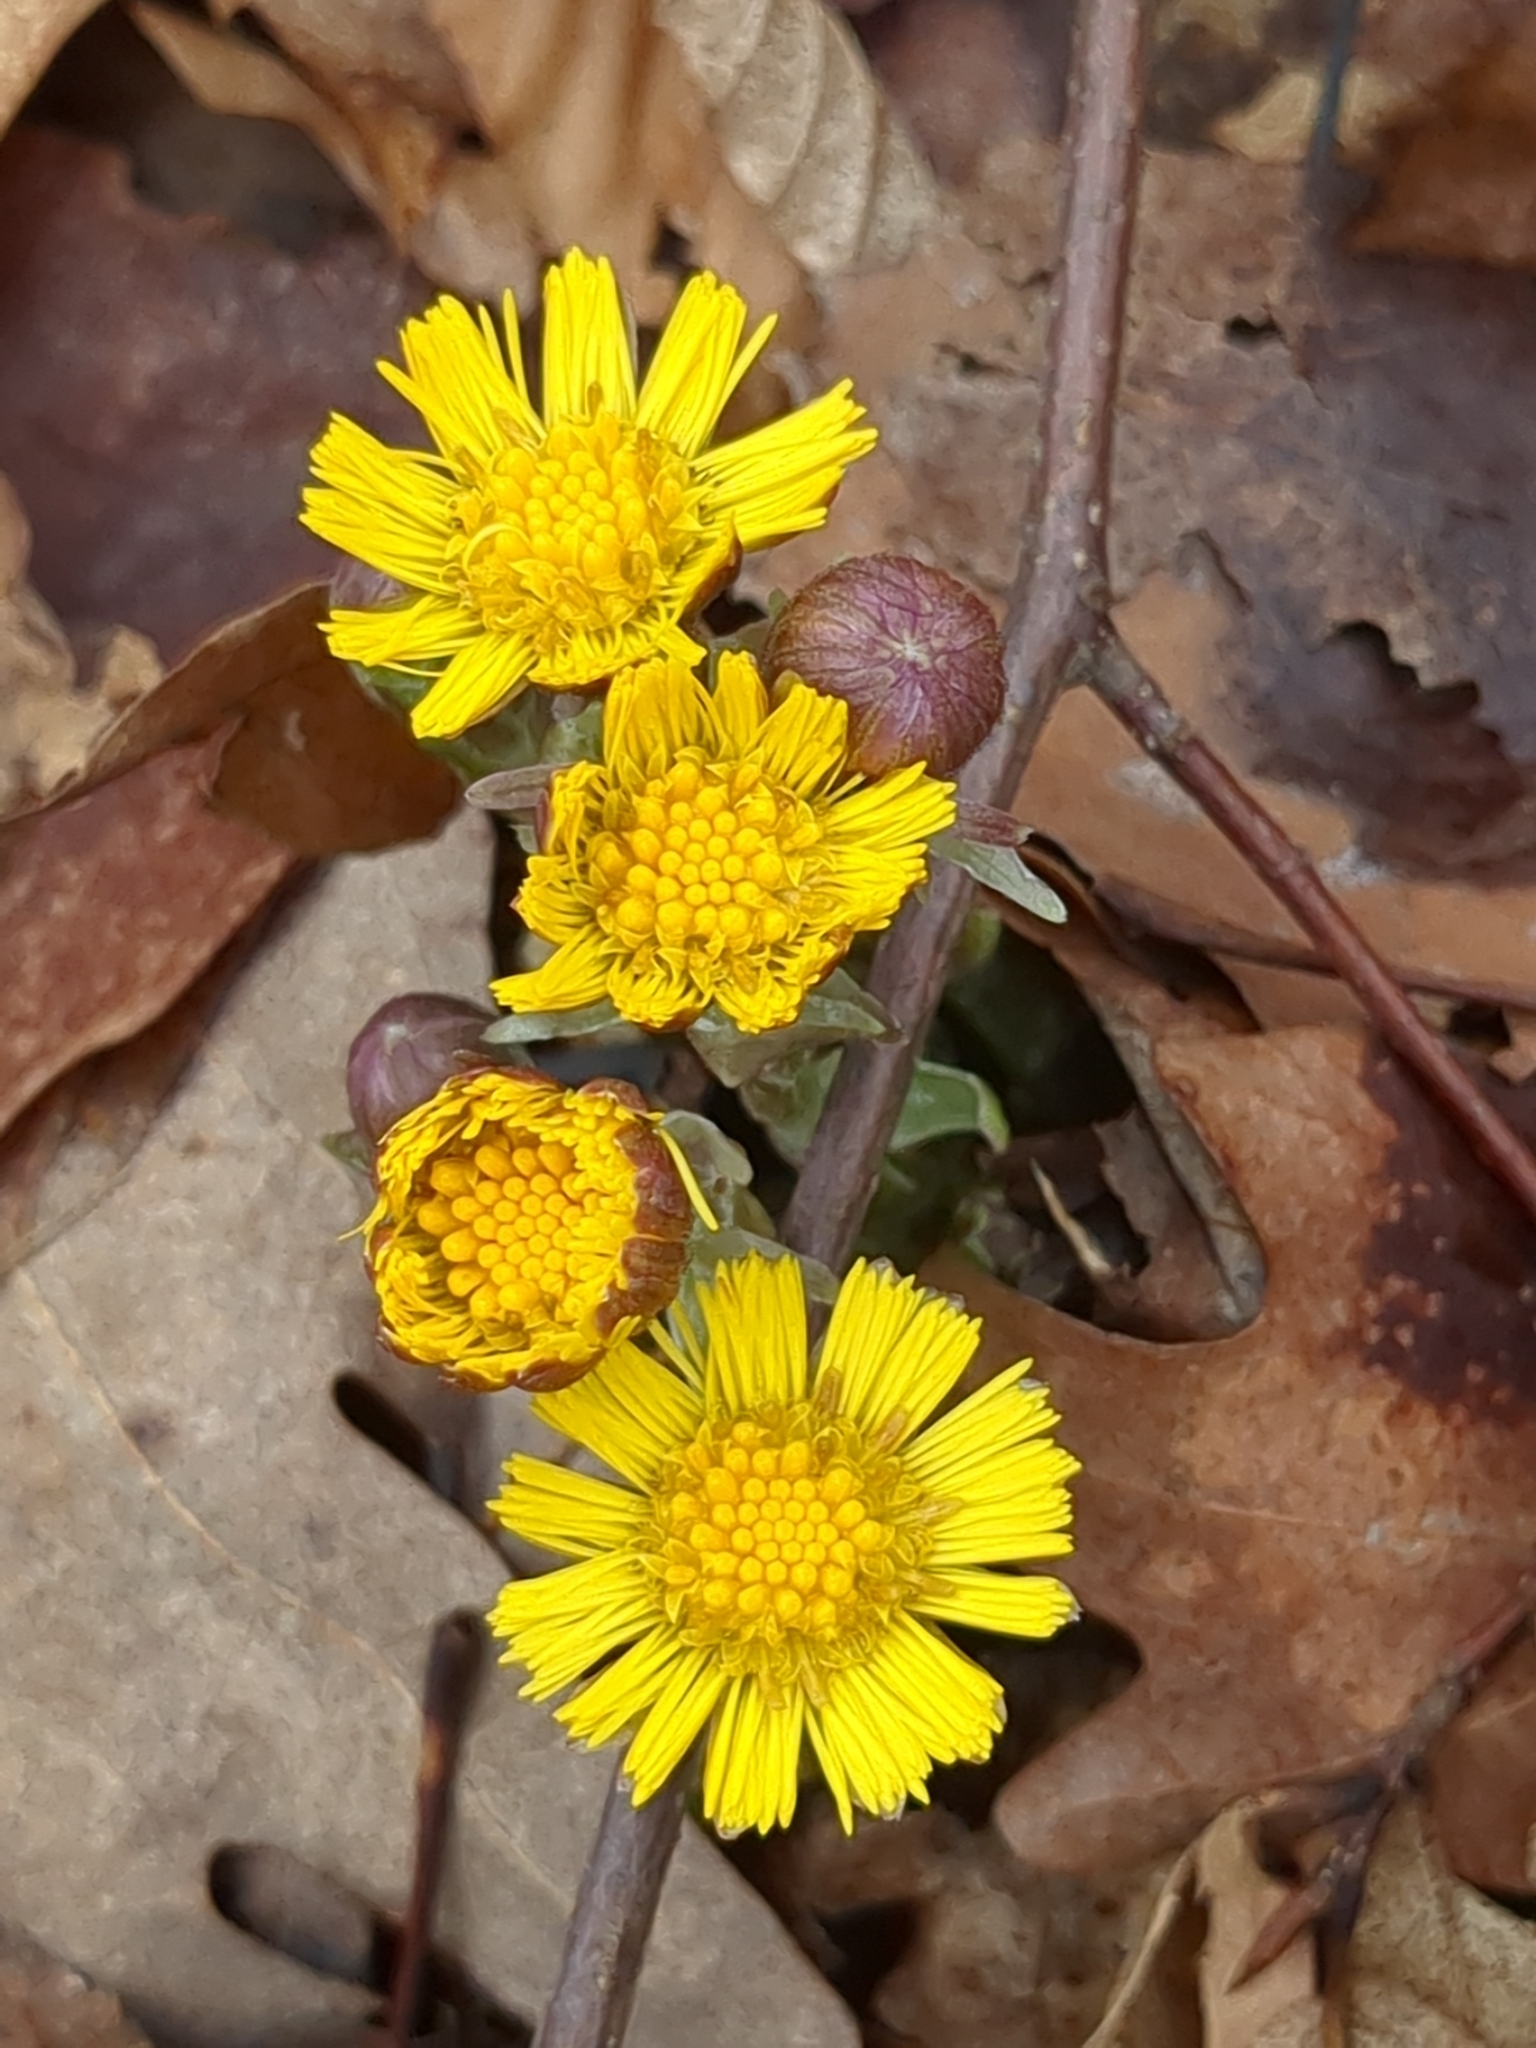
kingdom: Plantae
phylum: Tracheophyta
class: Magnoliopsida
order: Asterales
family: Asteraceae
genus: Tussilago
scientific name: Tussilago farfara
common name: Coltsfoot
